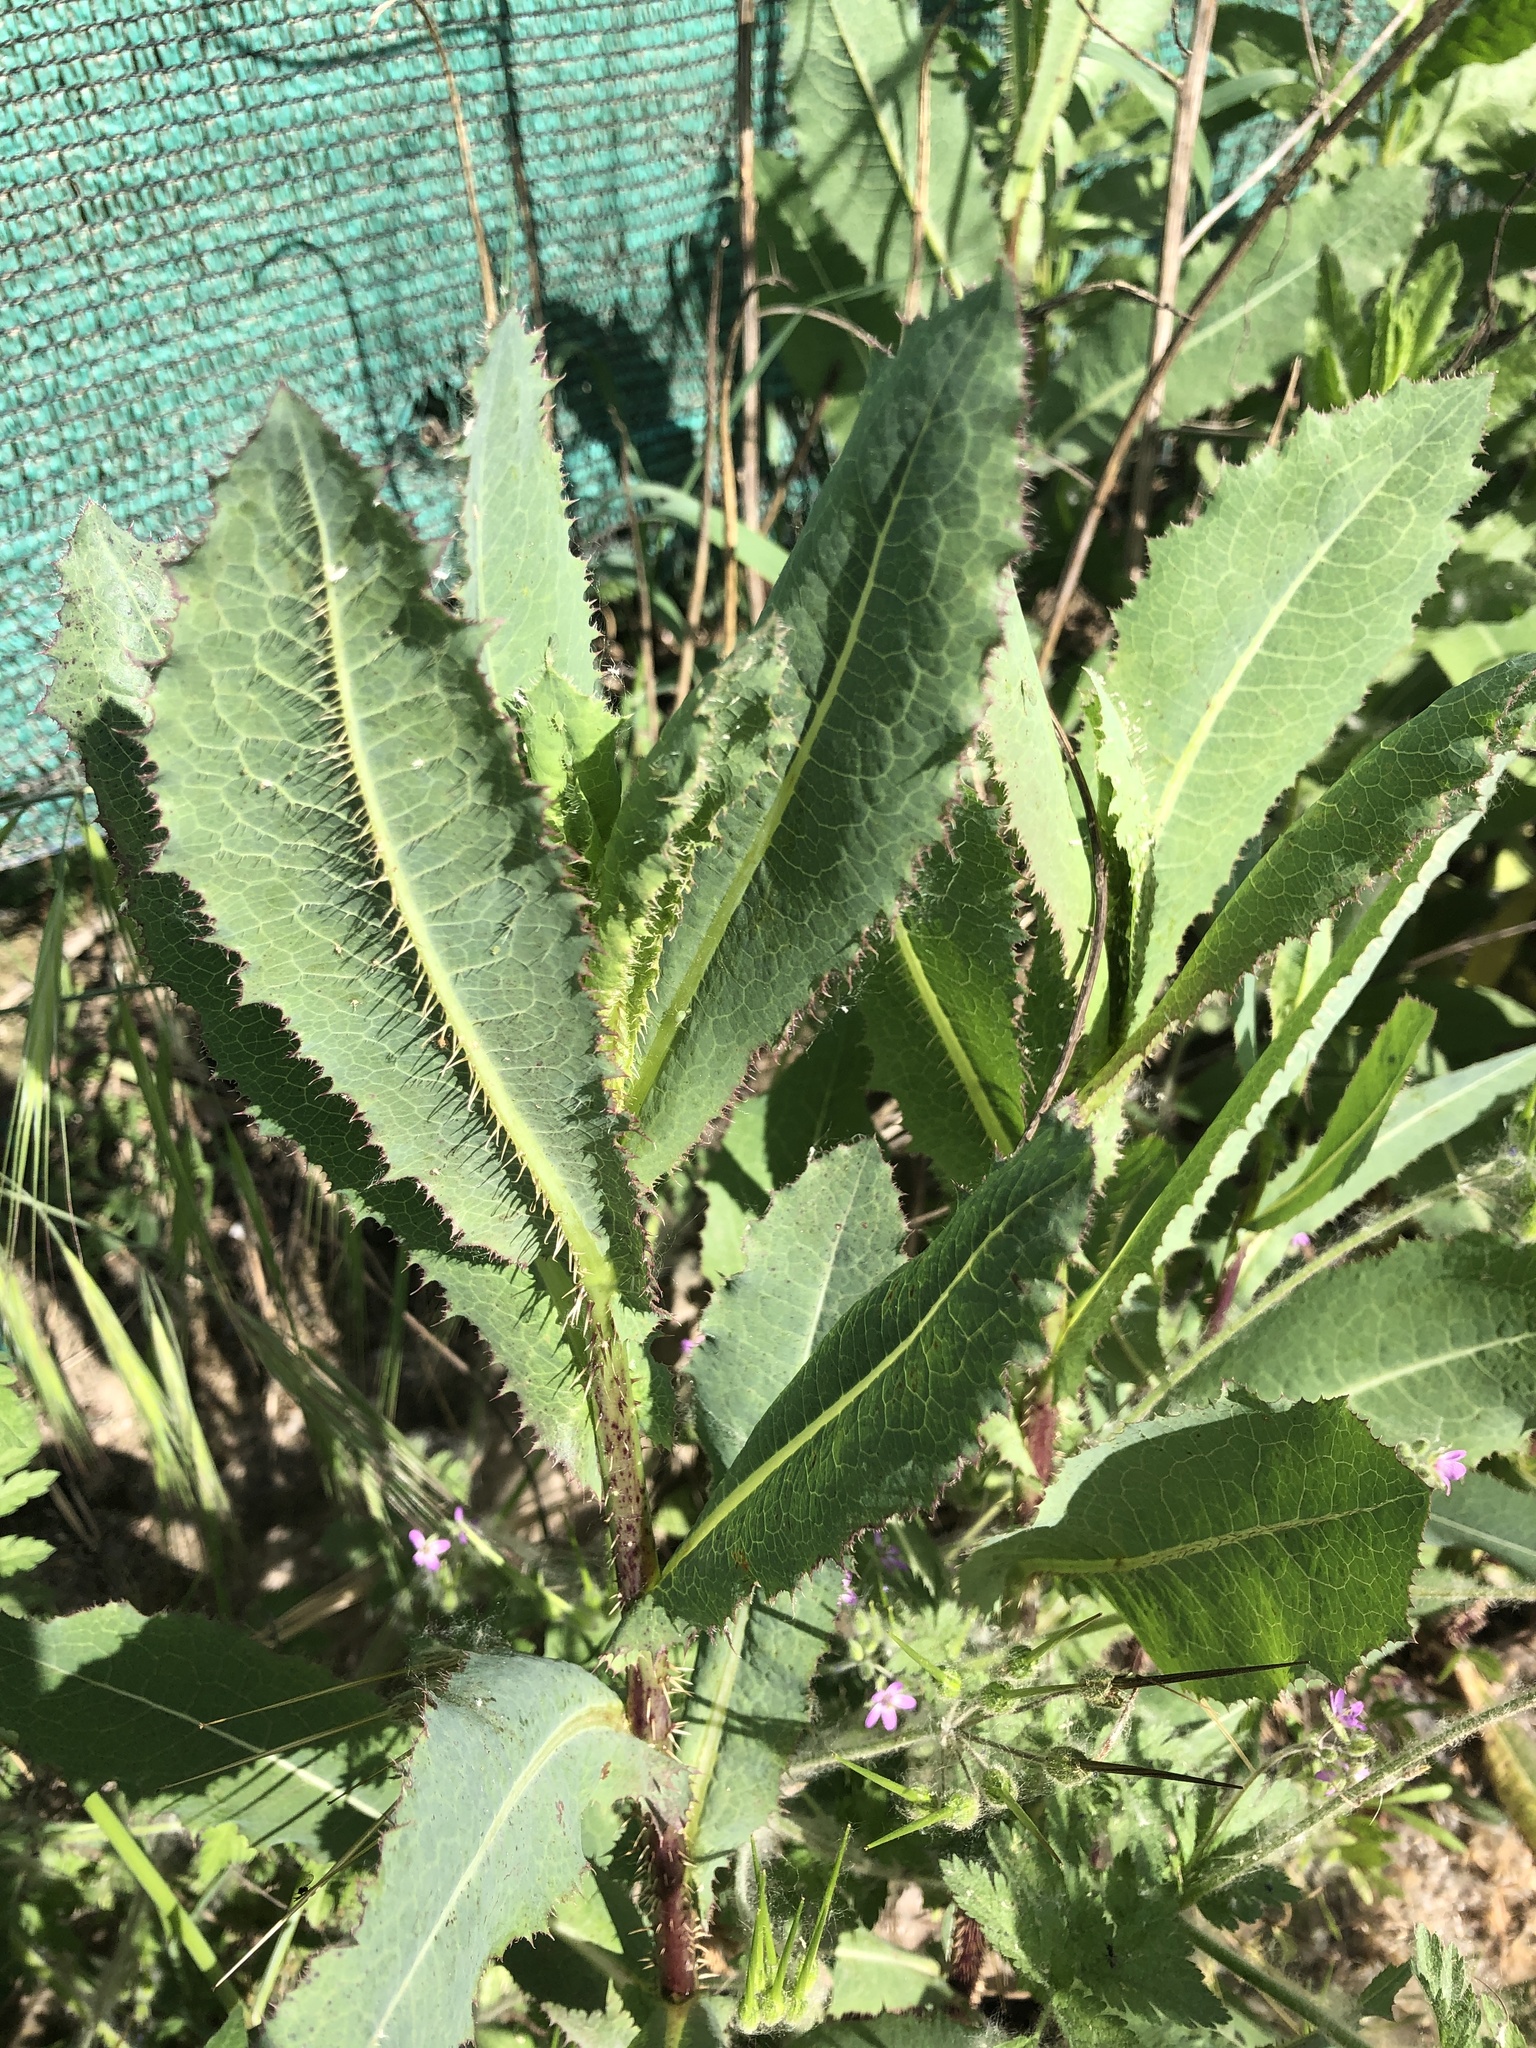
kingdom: Plantae
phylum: Tracheophyta
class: Magnoliopsida
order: Asterales
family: Asteraceae
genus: Lactuca
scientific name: Lactuca serriola
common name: Prickly lettuce
